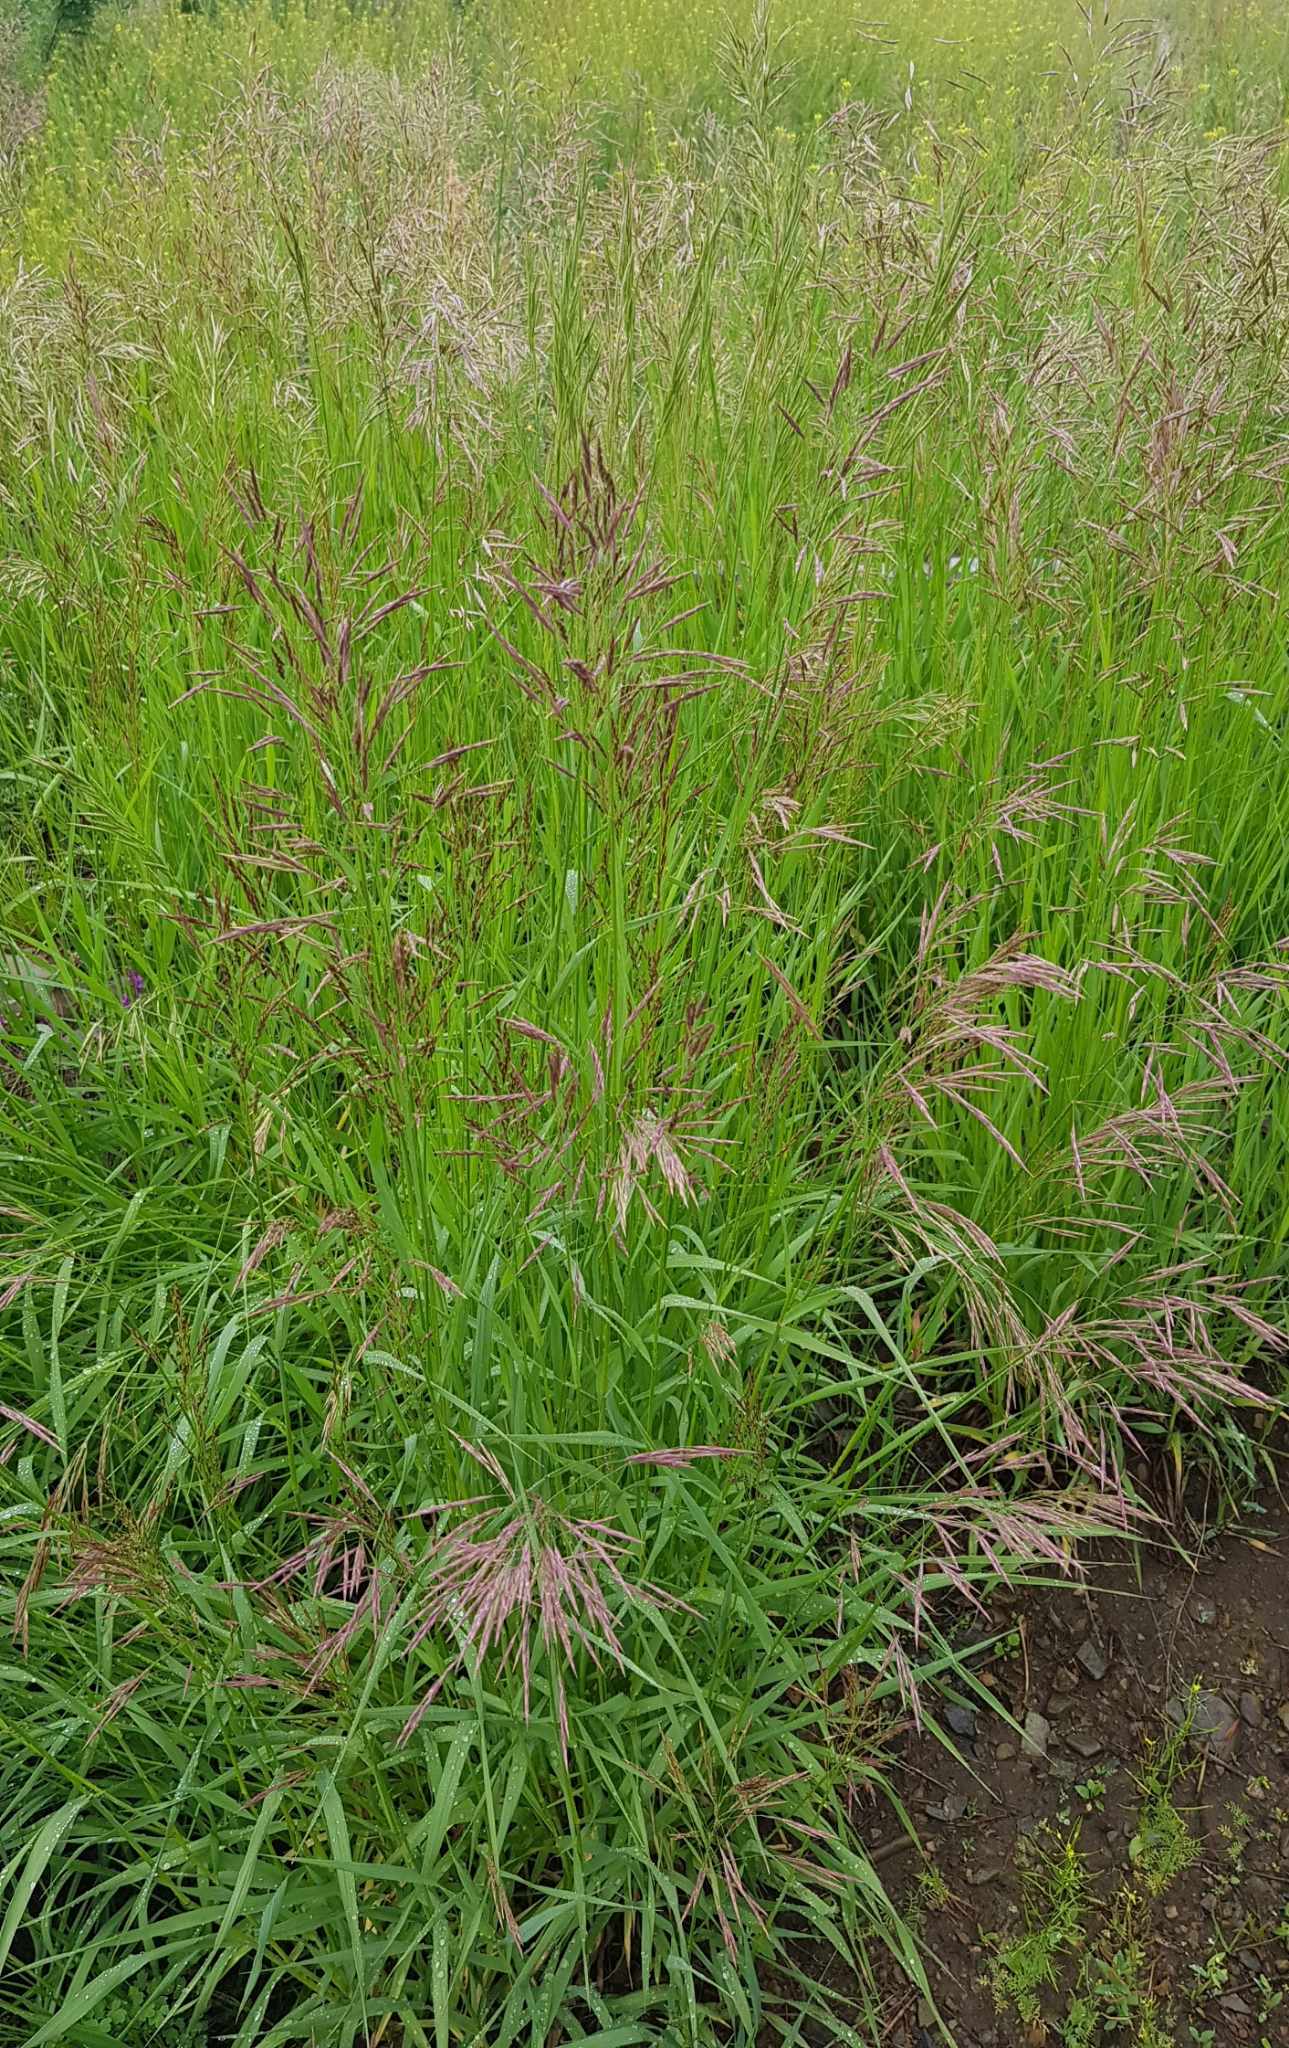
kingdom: Plantae
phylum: Tracheophyta
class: Liliopsida
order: Poales
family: Poaceae
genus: Bromus
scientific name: Bromus inermis
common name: Smooth brome
